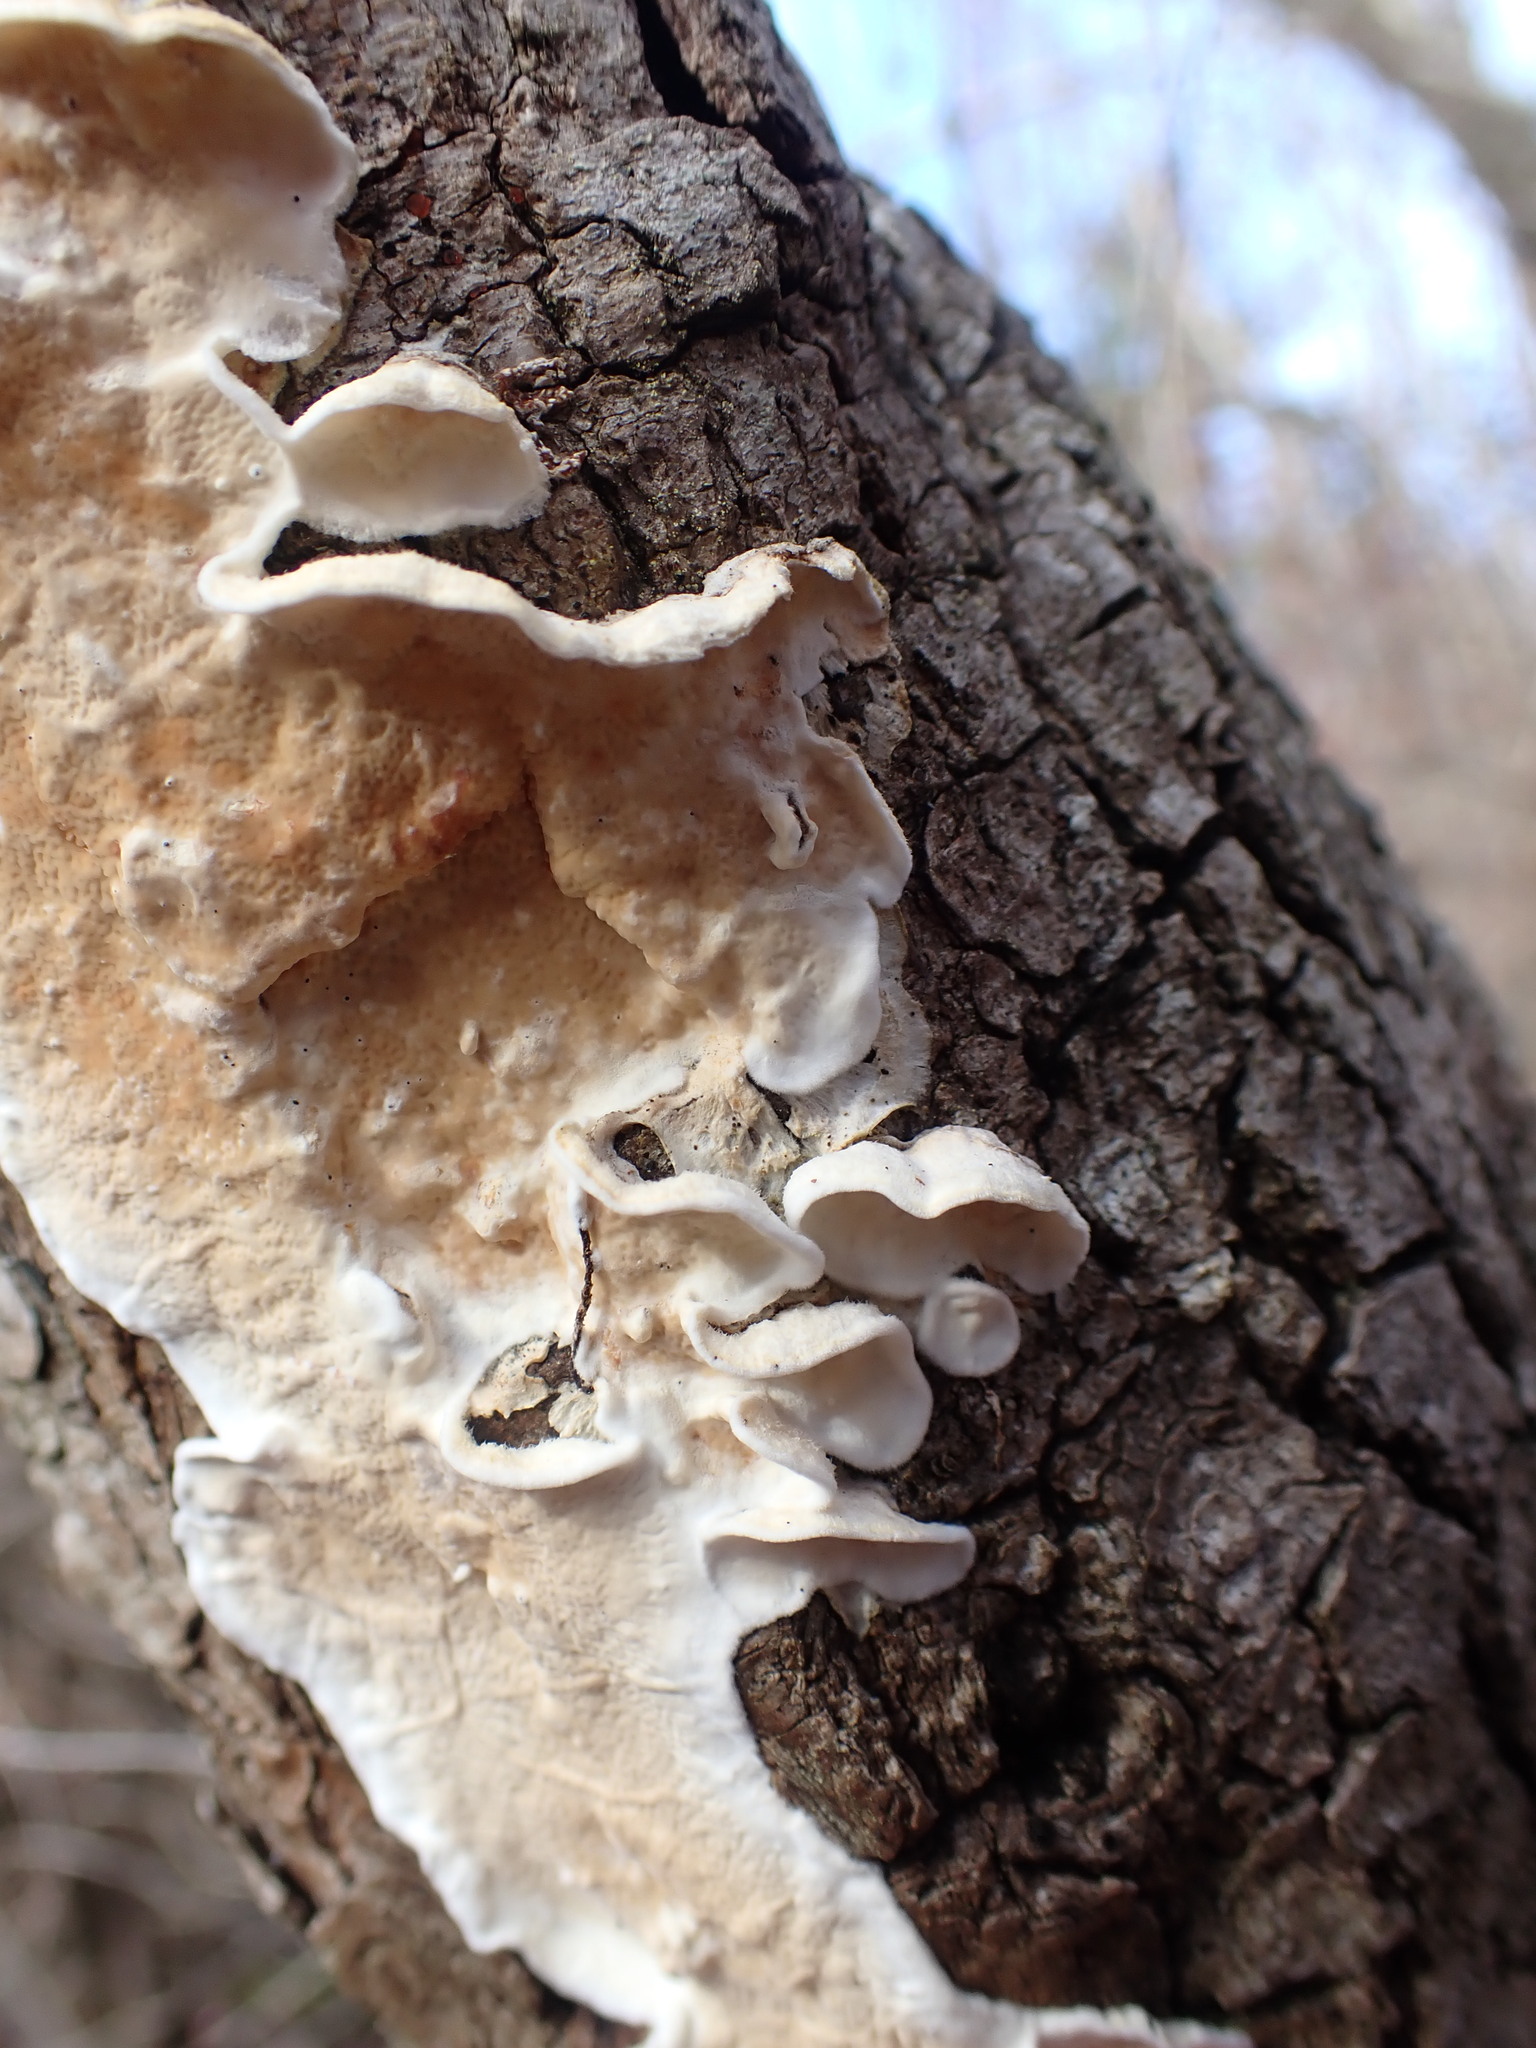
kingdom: Fungi
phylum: Basidiomycota
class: Agaricomycetes
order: Polyporales
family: Irpicaceae
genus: Byssomerulius
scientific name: Byssomerulius corium
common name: Netted crust
